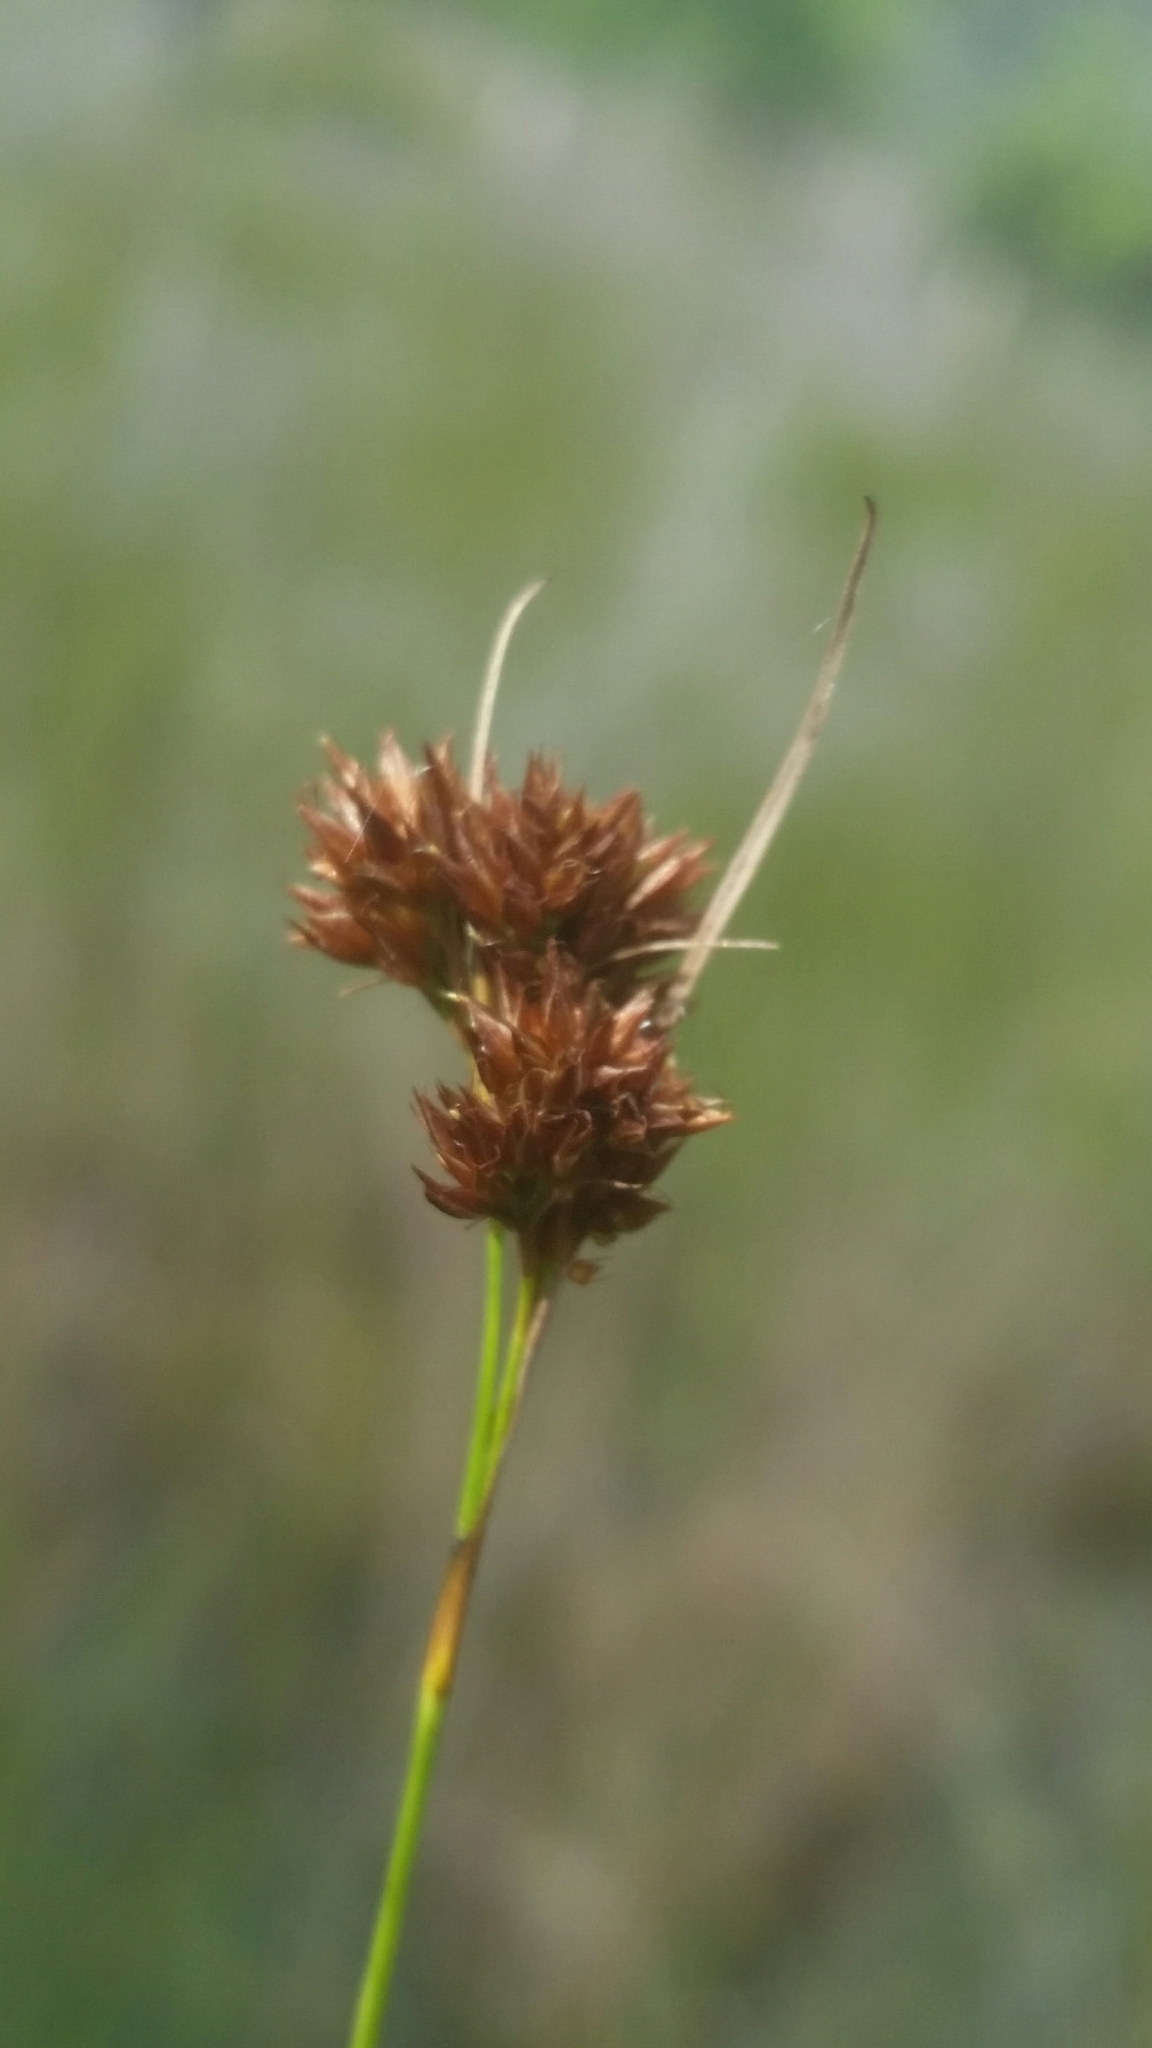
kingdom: Plantae
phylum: Tracheophyta
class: Liliopsida
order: Poales
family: Cyperaceae
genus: Rhynchospora
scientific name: Rhynchospora filifolia
